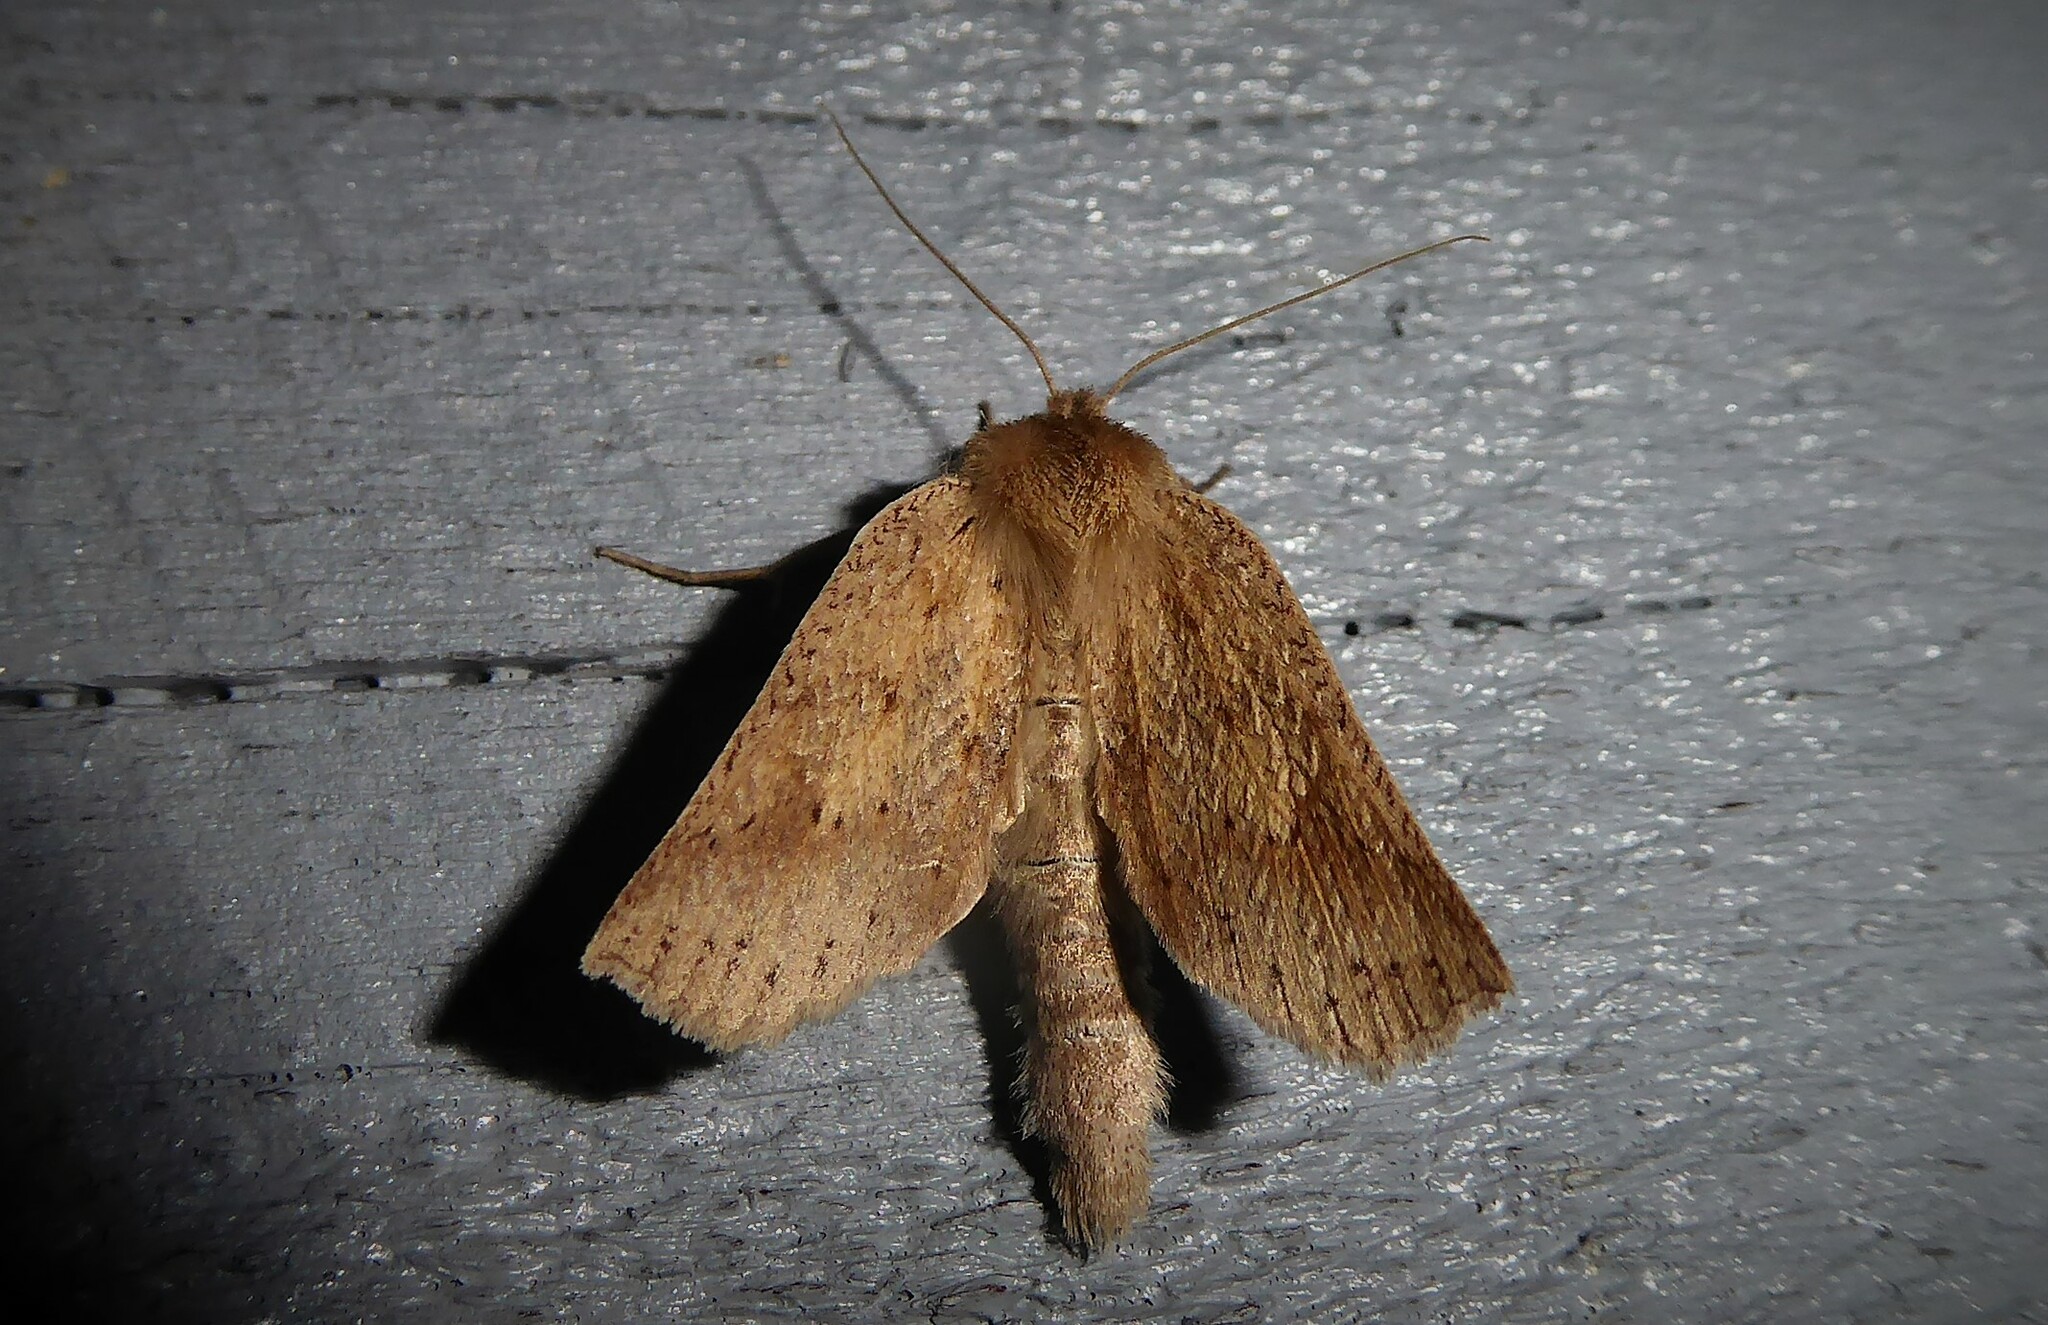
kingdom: Animalia
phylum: Arthropoda
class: Insecta
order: Lepidoptera
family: Geometridae
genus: Declana
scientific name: Declana leptomera
